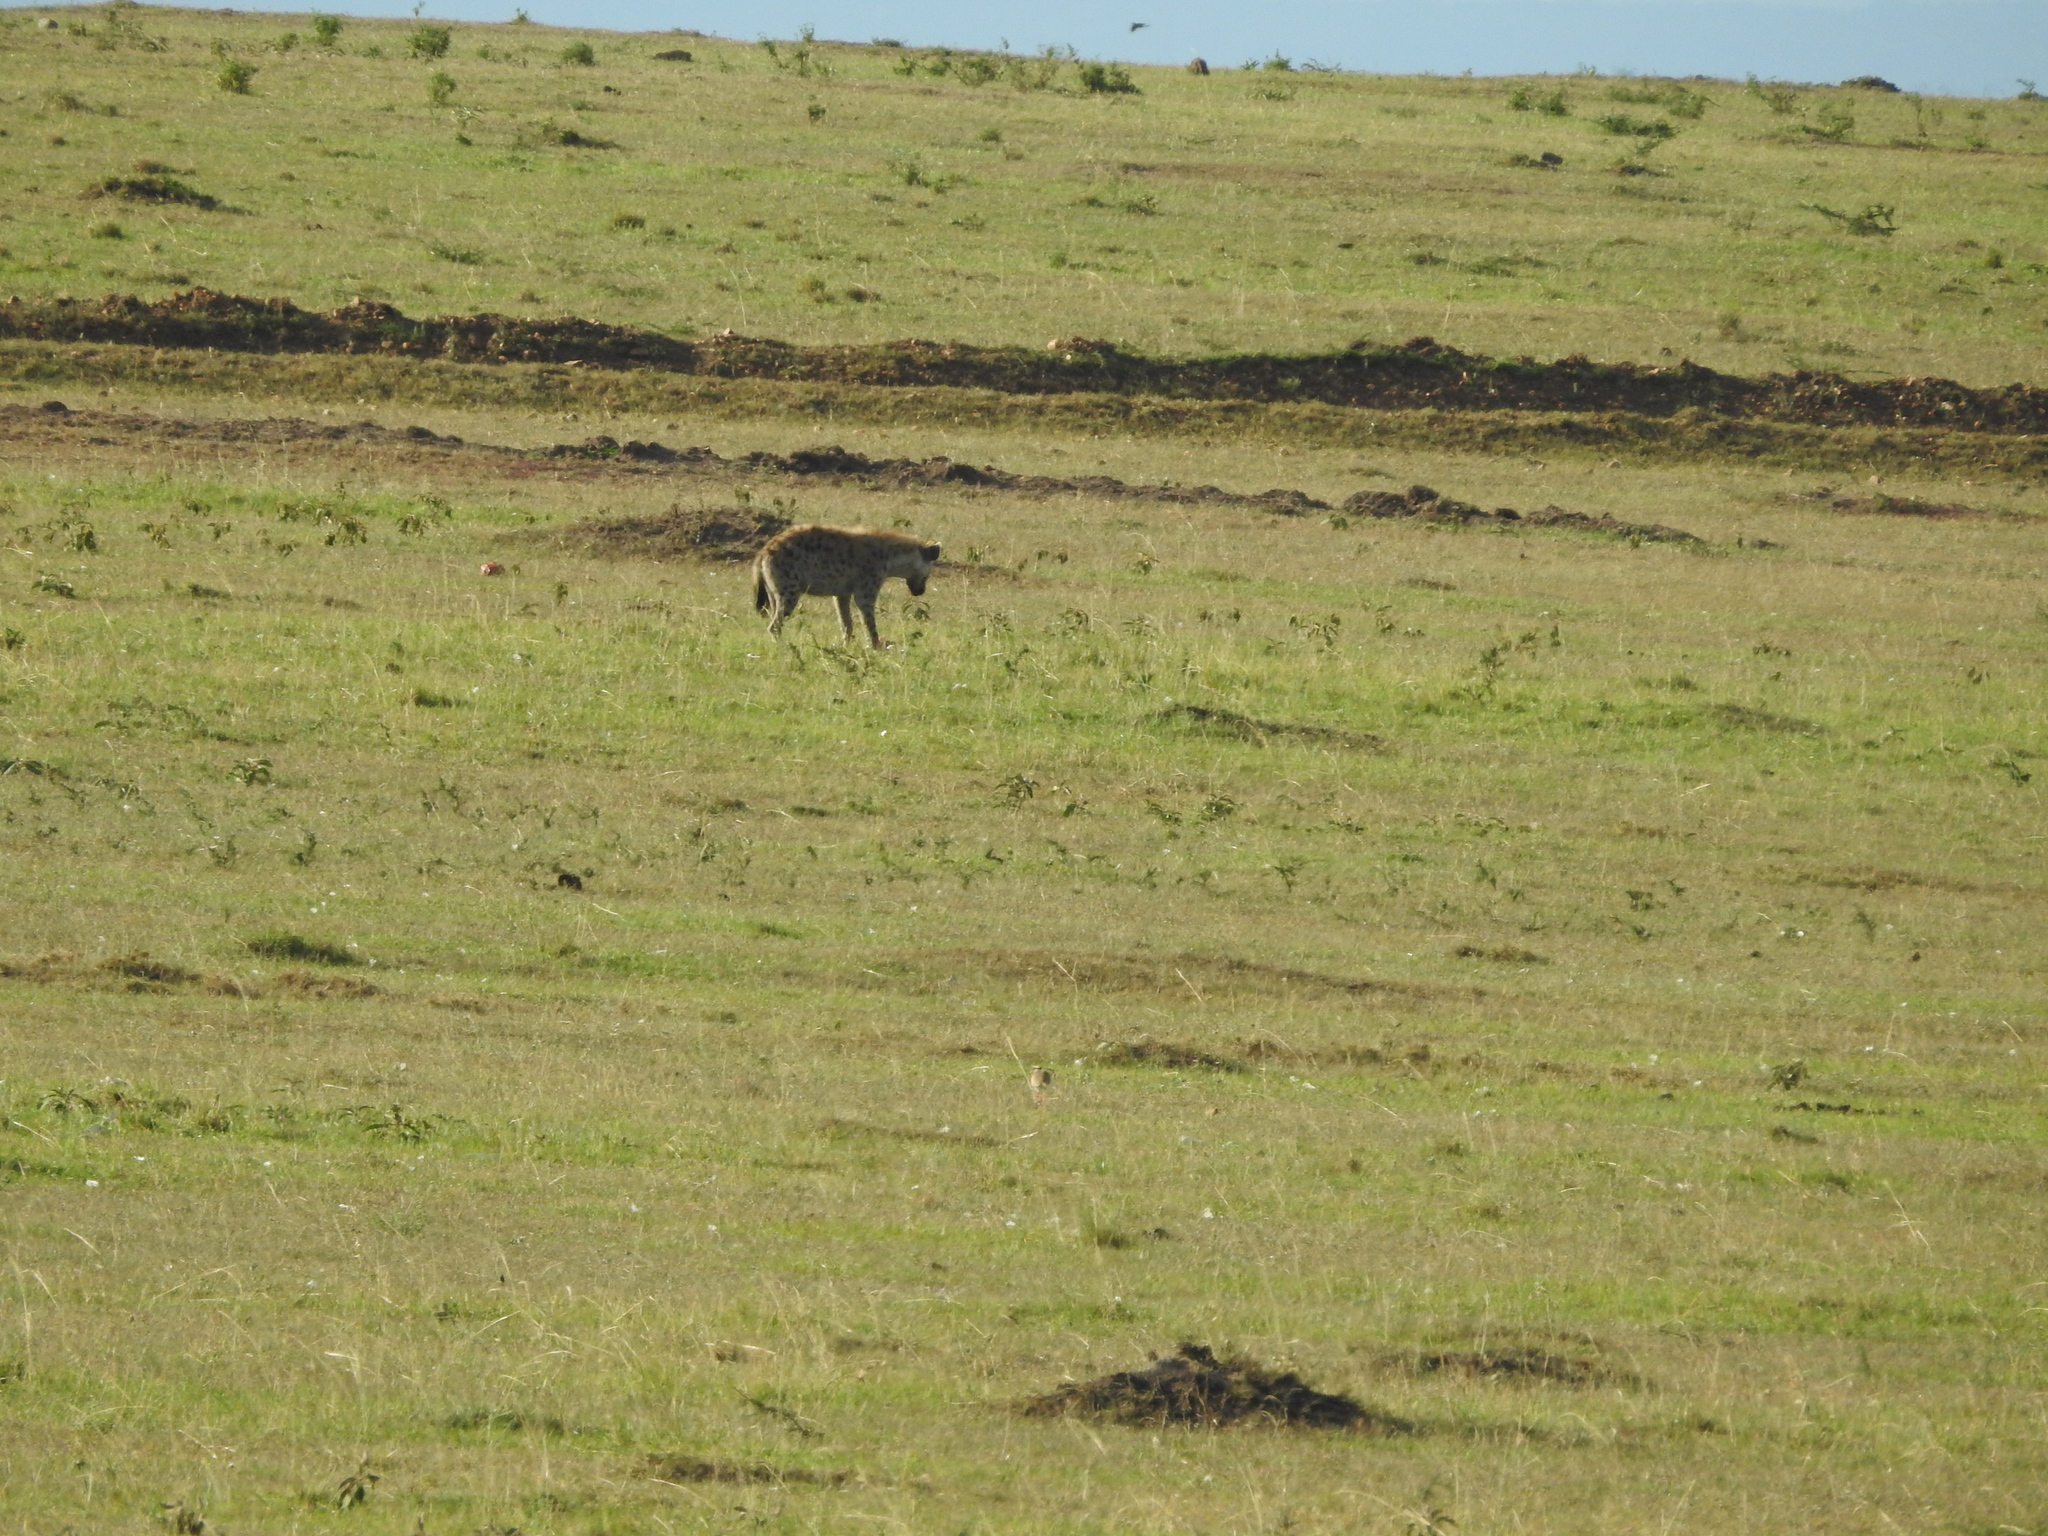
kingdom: Animalia
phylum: Chordata
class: Mammalia
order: Carnivora
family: Hyaenidae
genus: Crocuta
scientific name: Crocuta crocuta
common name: Spotted hyaena
